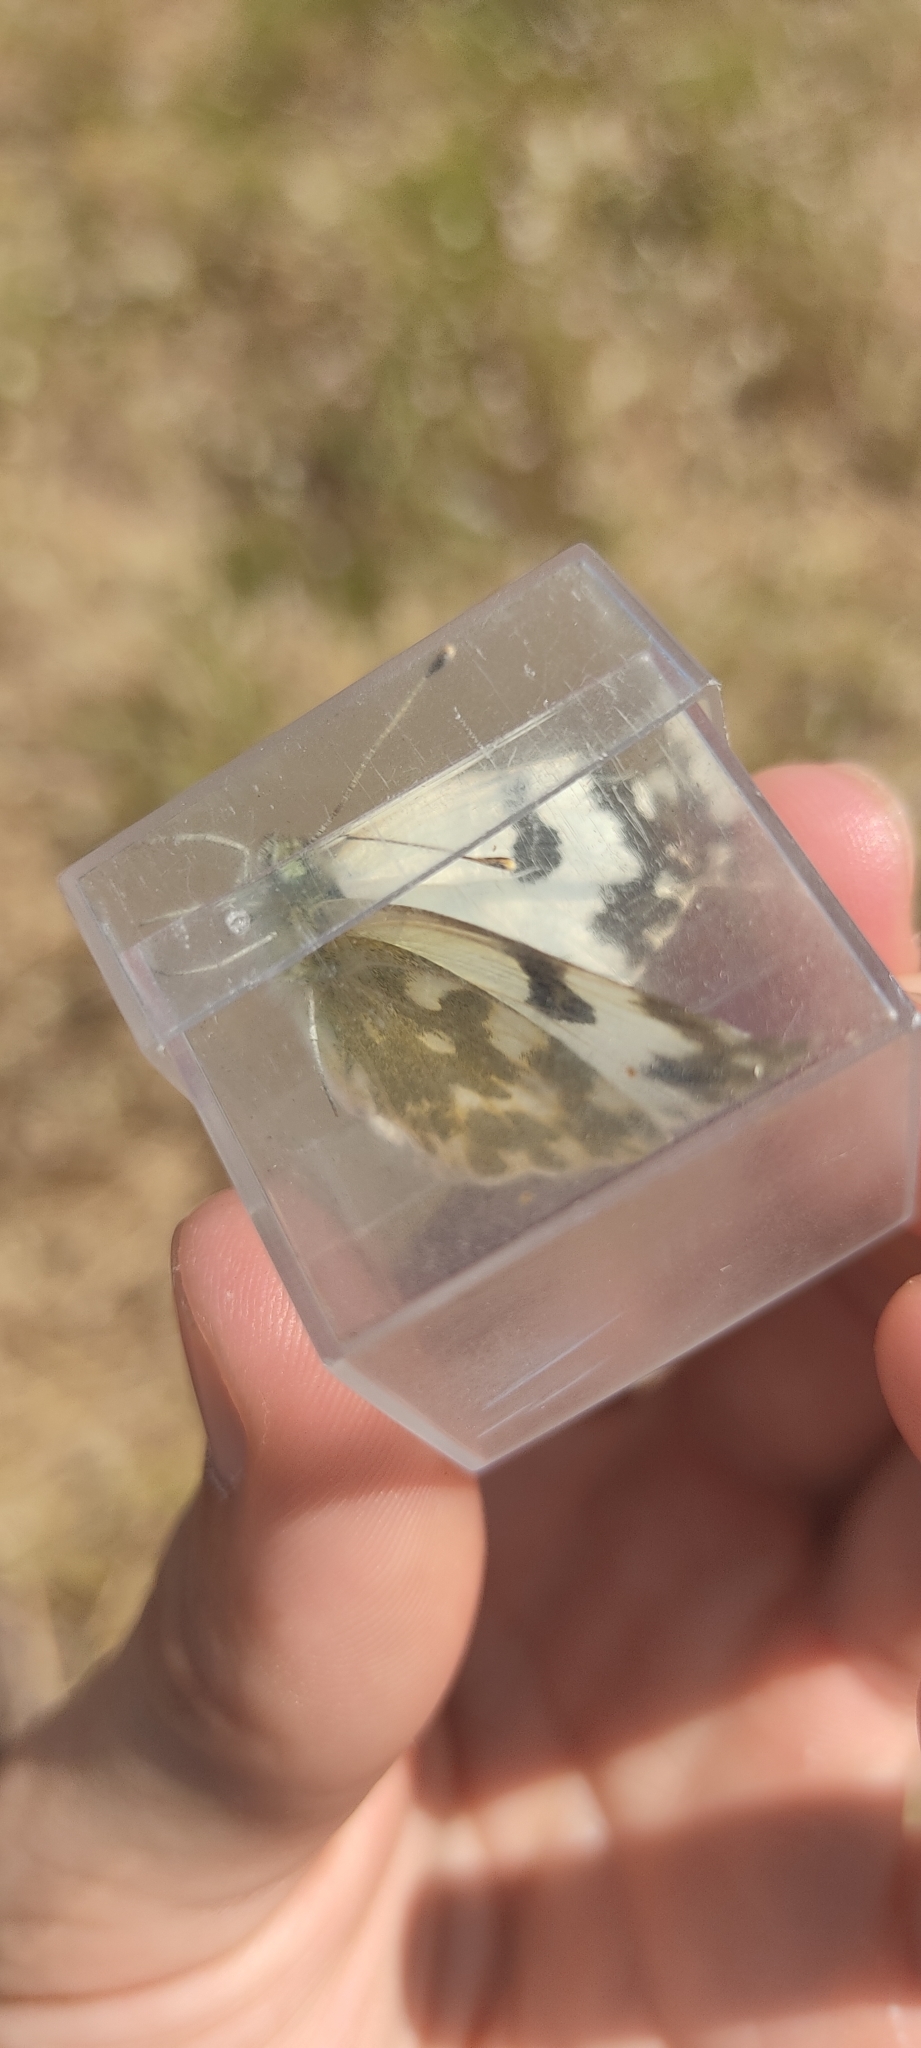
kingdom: Animalia
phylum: Arthropoda
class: Insecta
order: Lepidoptera
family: Pieridae
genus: Pontia
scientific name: Pontia daplidice
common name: Bath white
